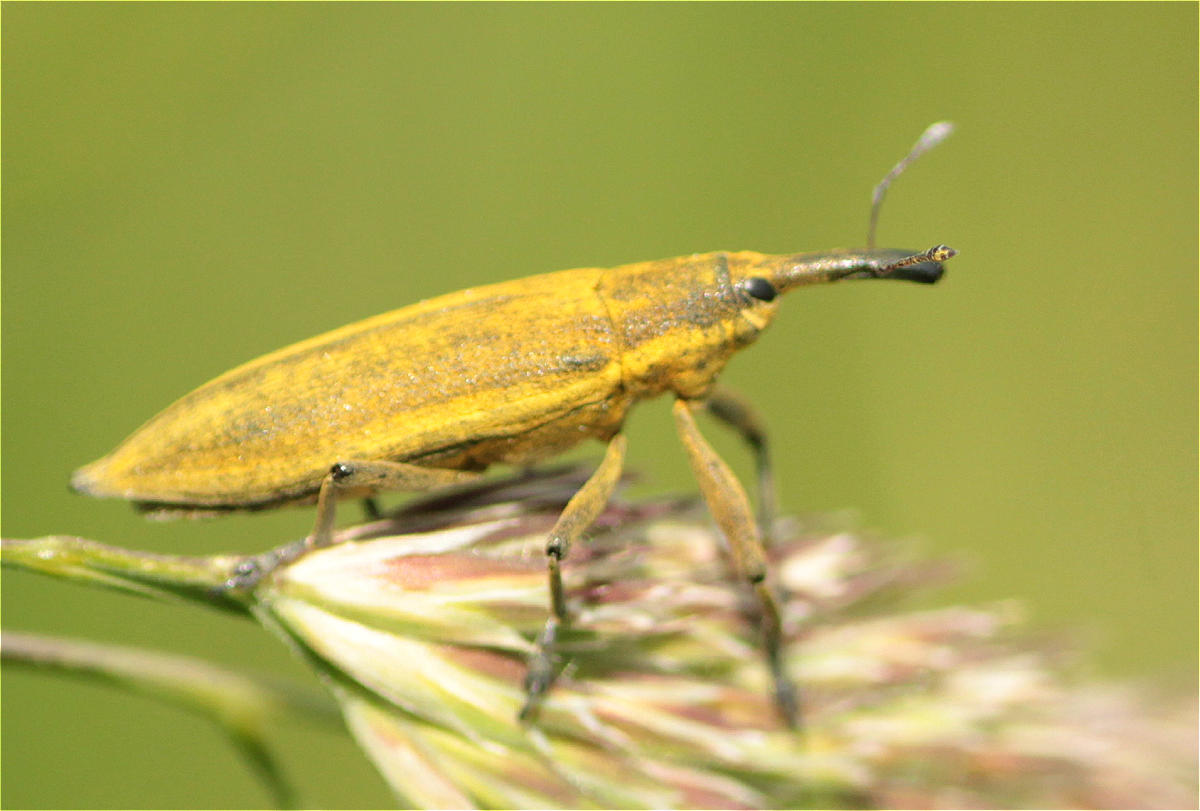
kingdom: Animalia
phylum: Arthropoda
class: Insecta
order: Coleoptera
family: Curculionidae
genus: Lixus
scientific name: Lixus iridis
